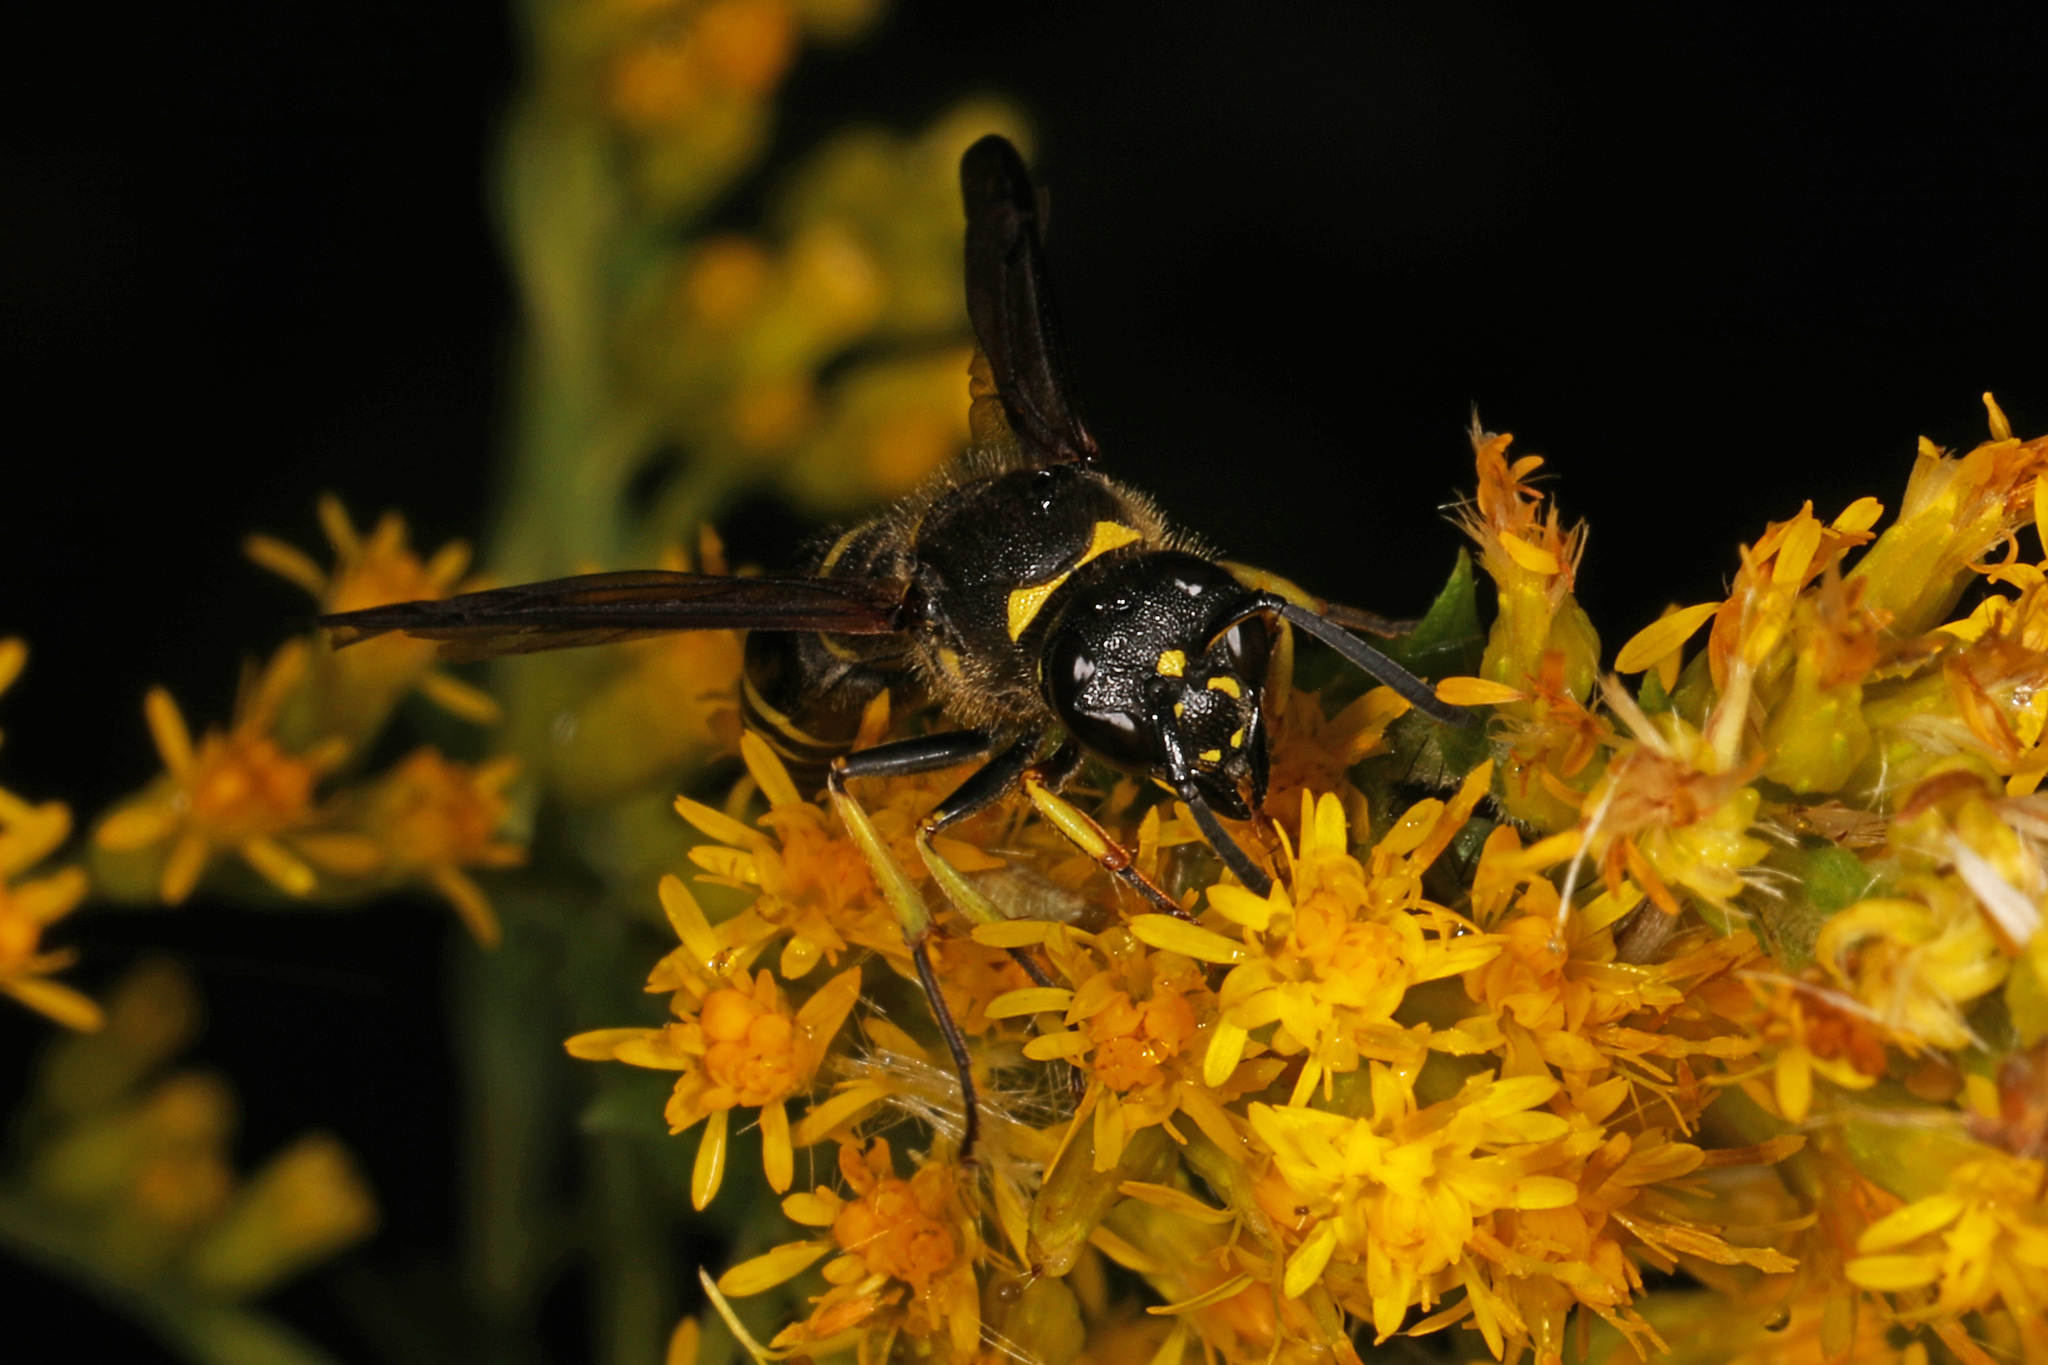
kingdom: Animalia
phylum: Arthropoda
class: Insecta
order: Hymenoptera
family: Vespidae
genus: Ancistrocerus
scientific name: Ancistrocerus
